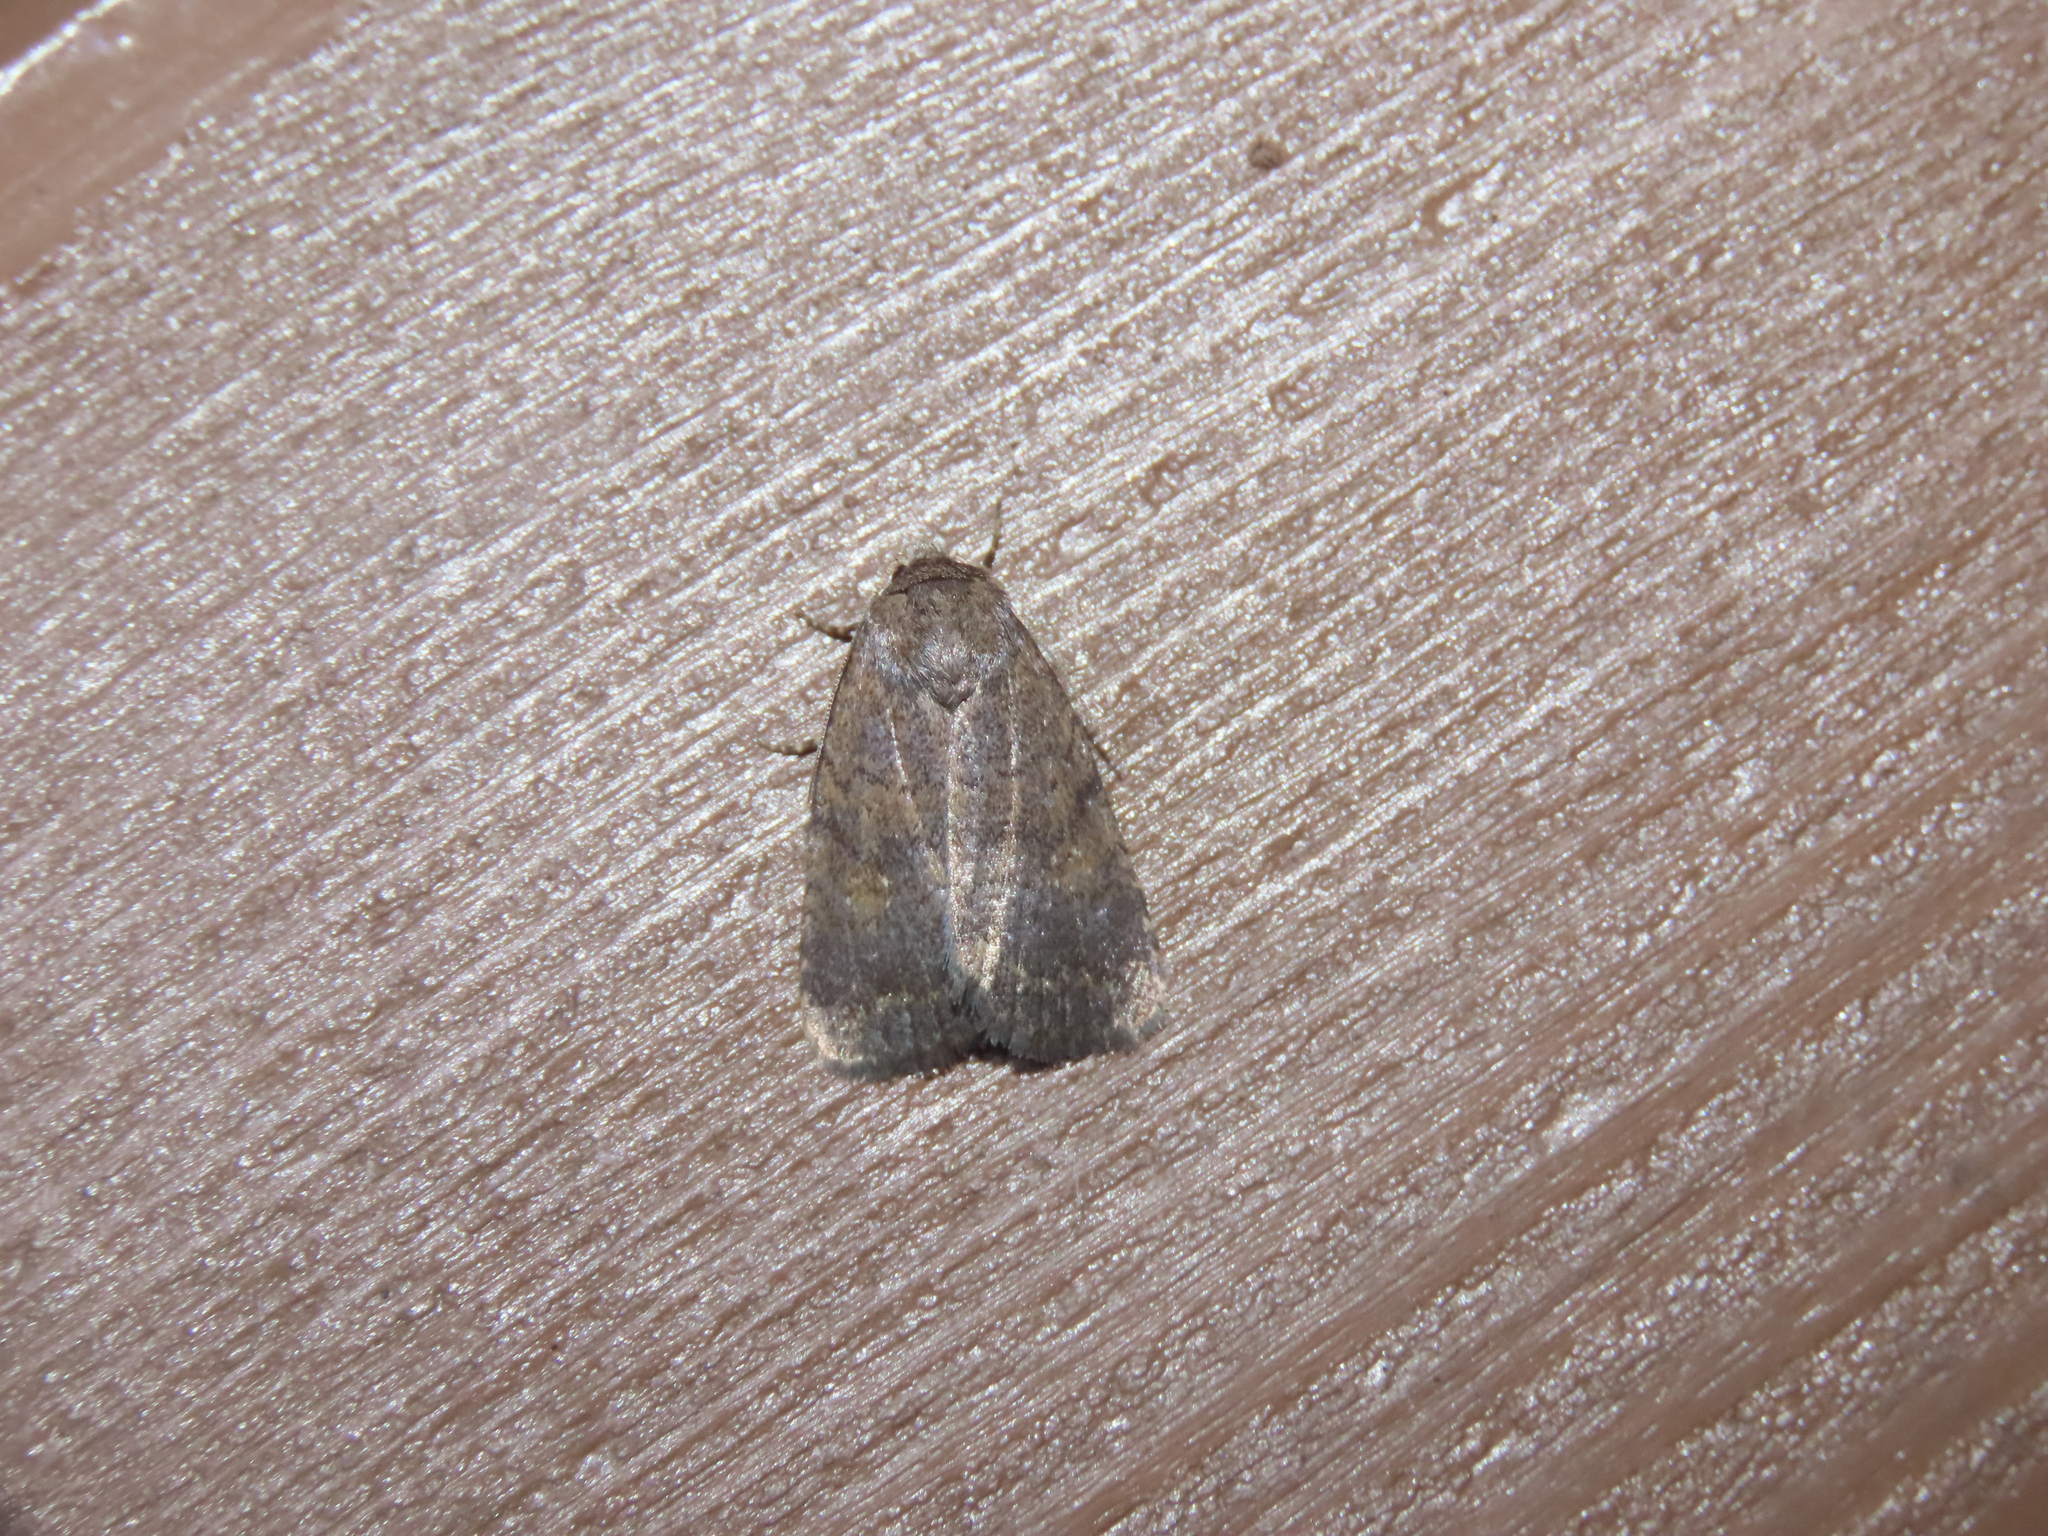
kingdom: Animalia
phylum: Arthropoda
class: Insecta
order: Lepidoptera
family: Noctuidae
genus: Athetis
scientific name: Athetis tarda
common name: Slowpoke moth
